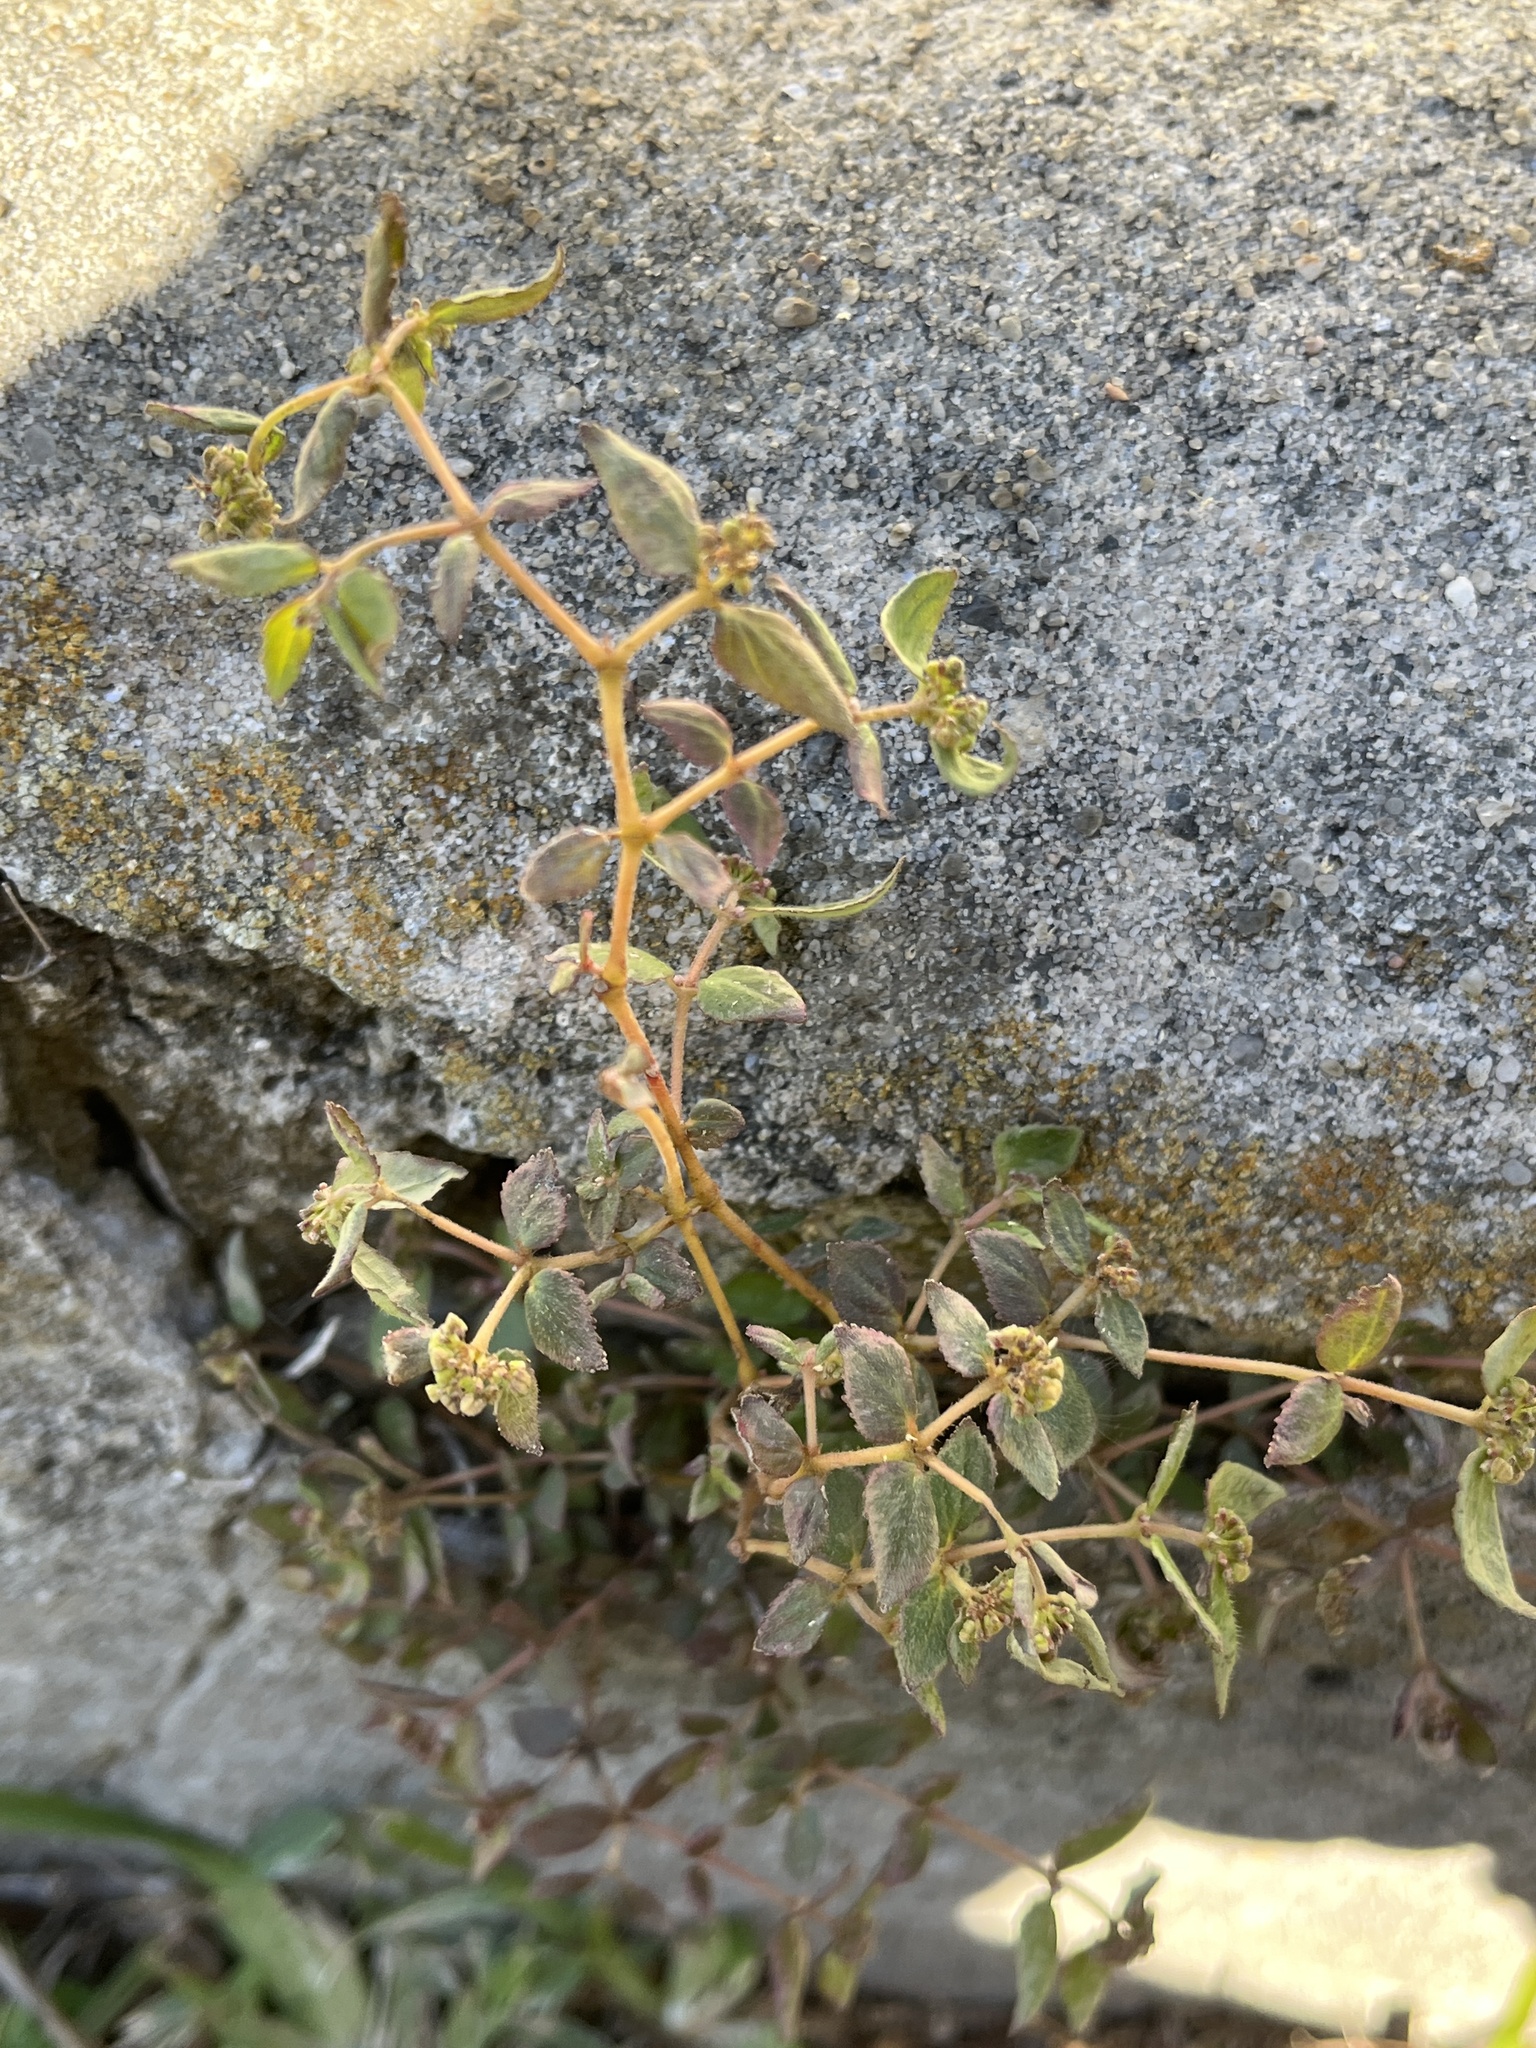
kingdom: Plantae
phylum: Tracheophyta
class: Magnoliopsida
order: Malpighiales
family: Euphorbiaceae
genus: Euphorbia
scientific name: Euphorbia ophthalmica
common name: Florida hammock sandmat
